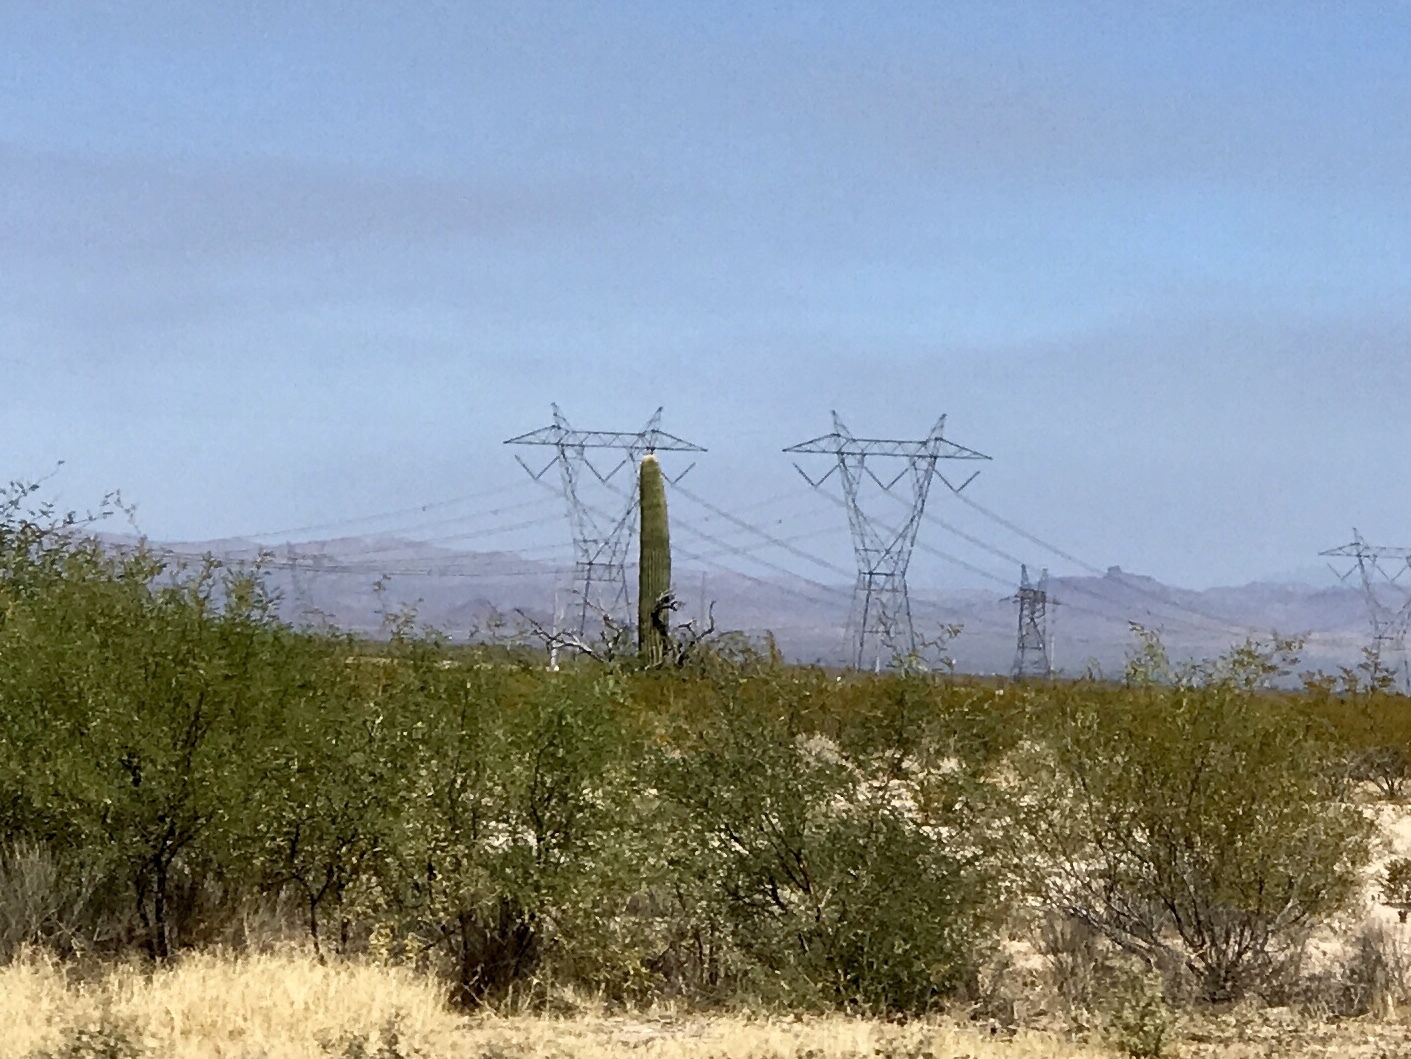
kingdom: Plantae
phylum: Tracheophyta
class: Magnoliopsida
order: Caryophyllales
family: Cactaceae
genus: Carnegiea
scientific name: Carnegiea gigantea
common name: Saguaro
